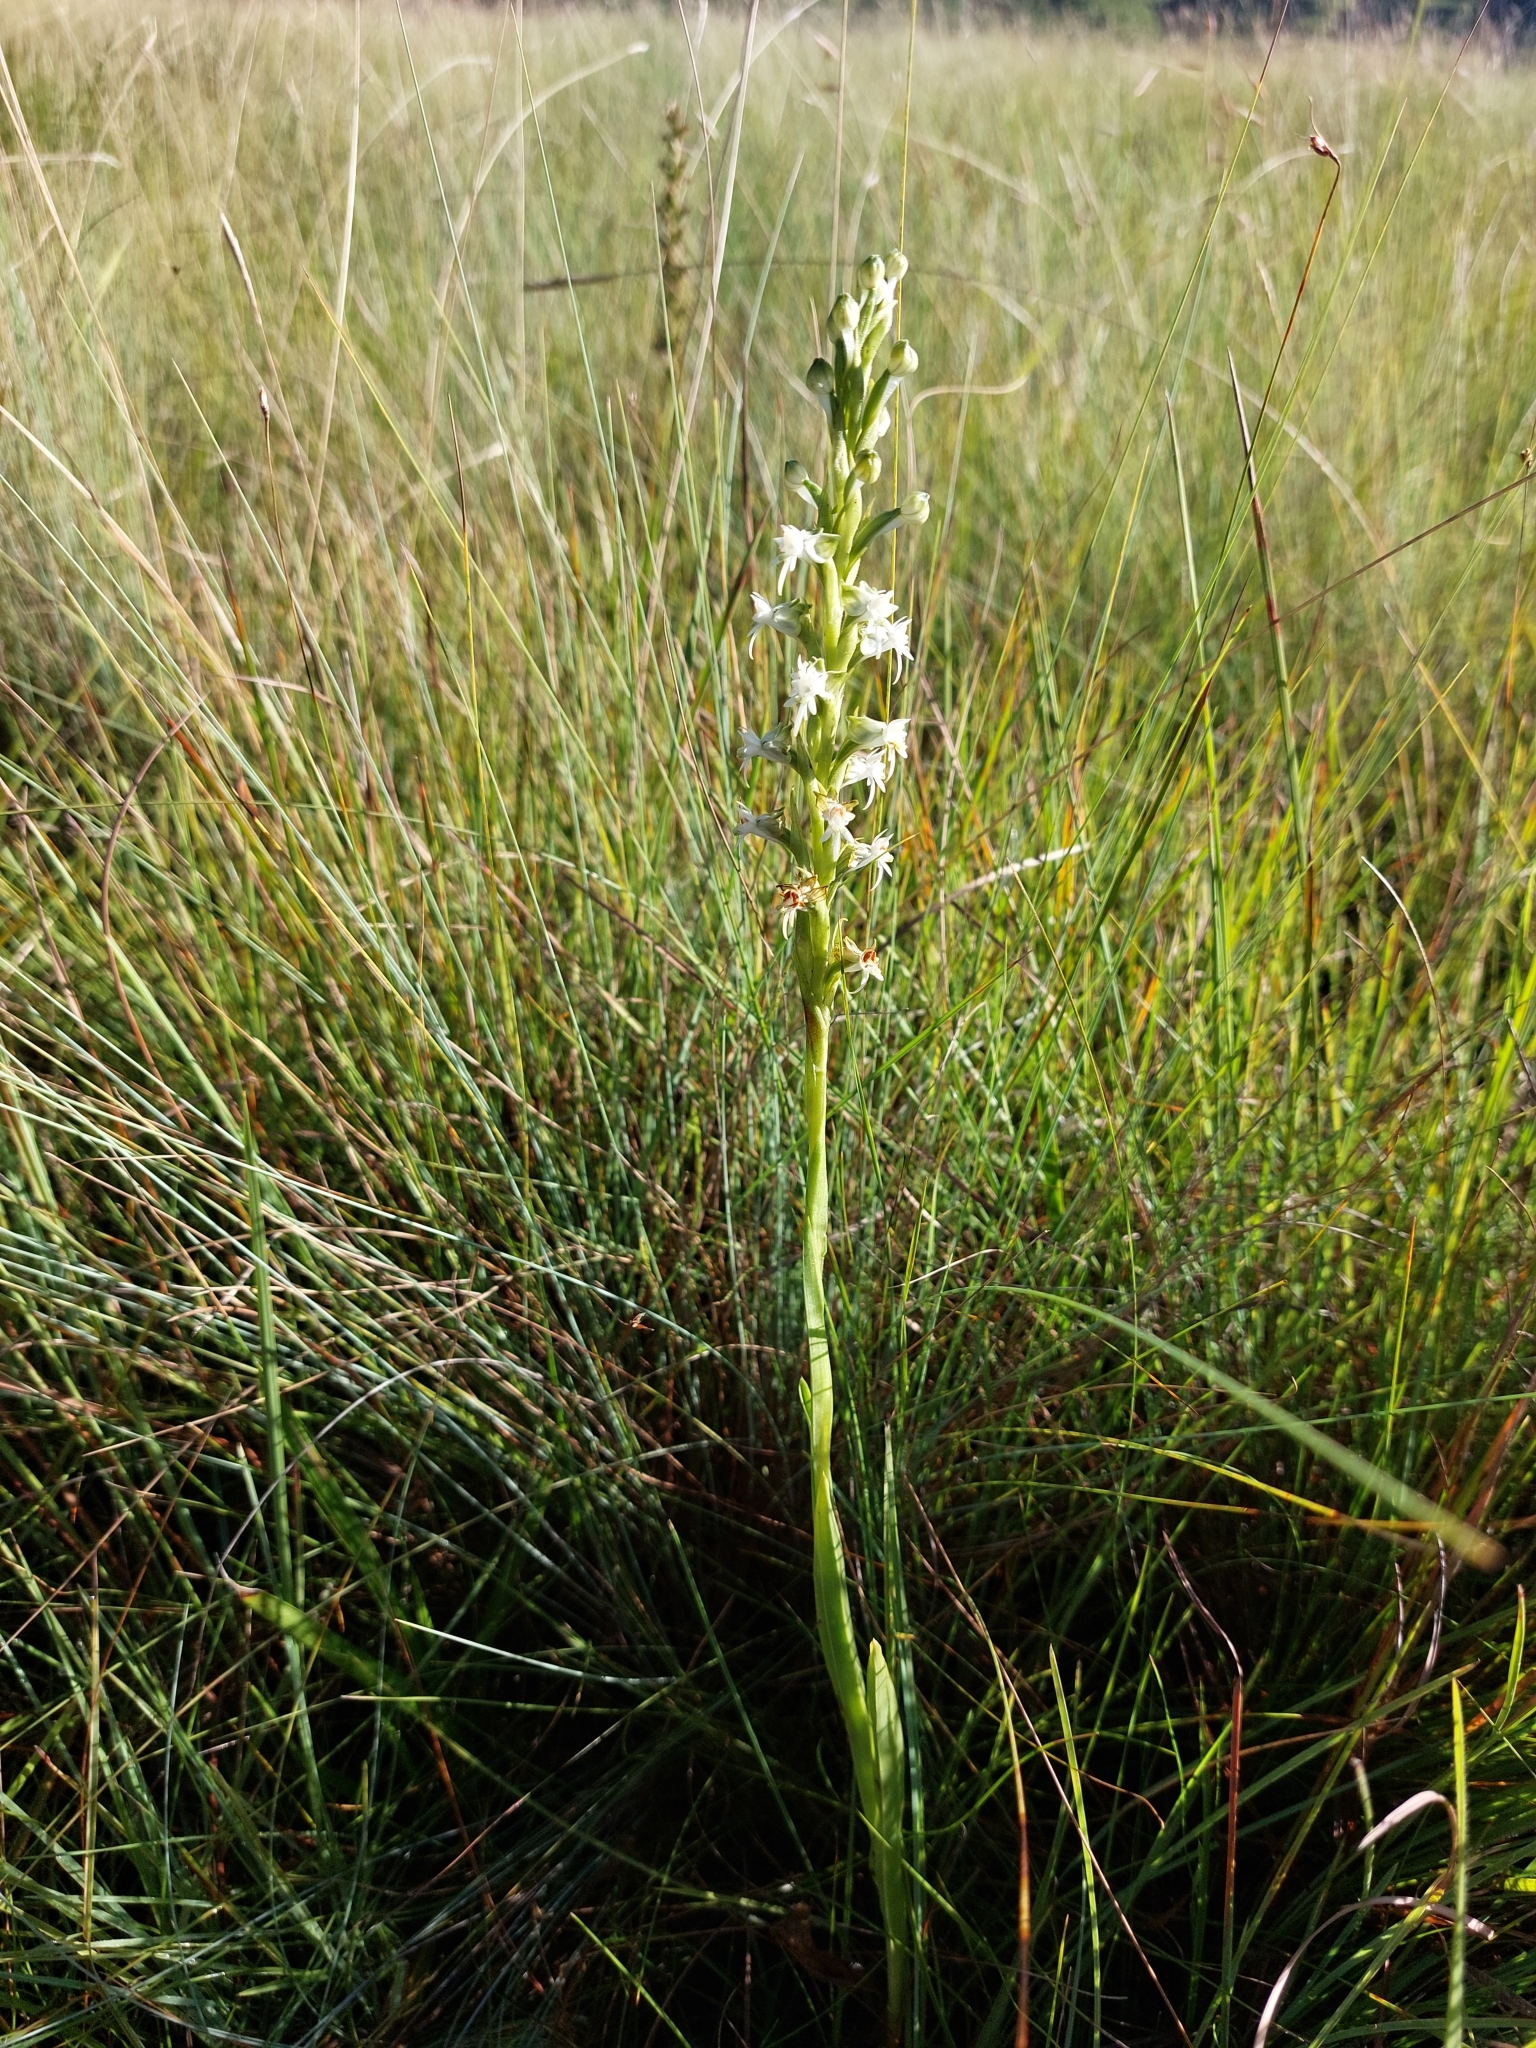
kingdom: Plantae
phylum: Tracheophyta
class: Liliopsida
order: Asparagales
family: Orchidaceae
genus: Habenaria
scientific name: Habenaria dives
